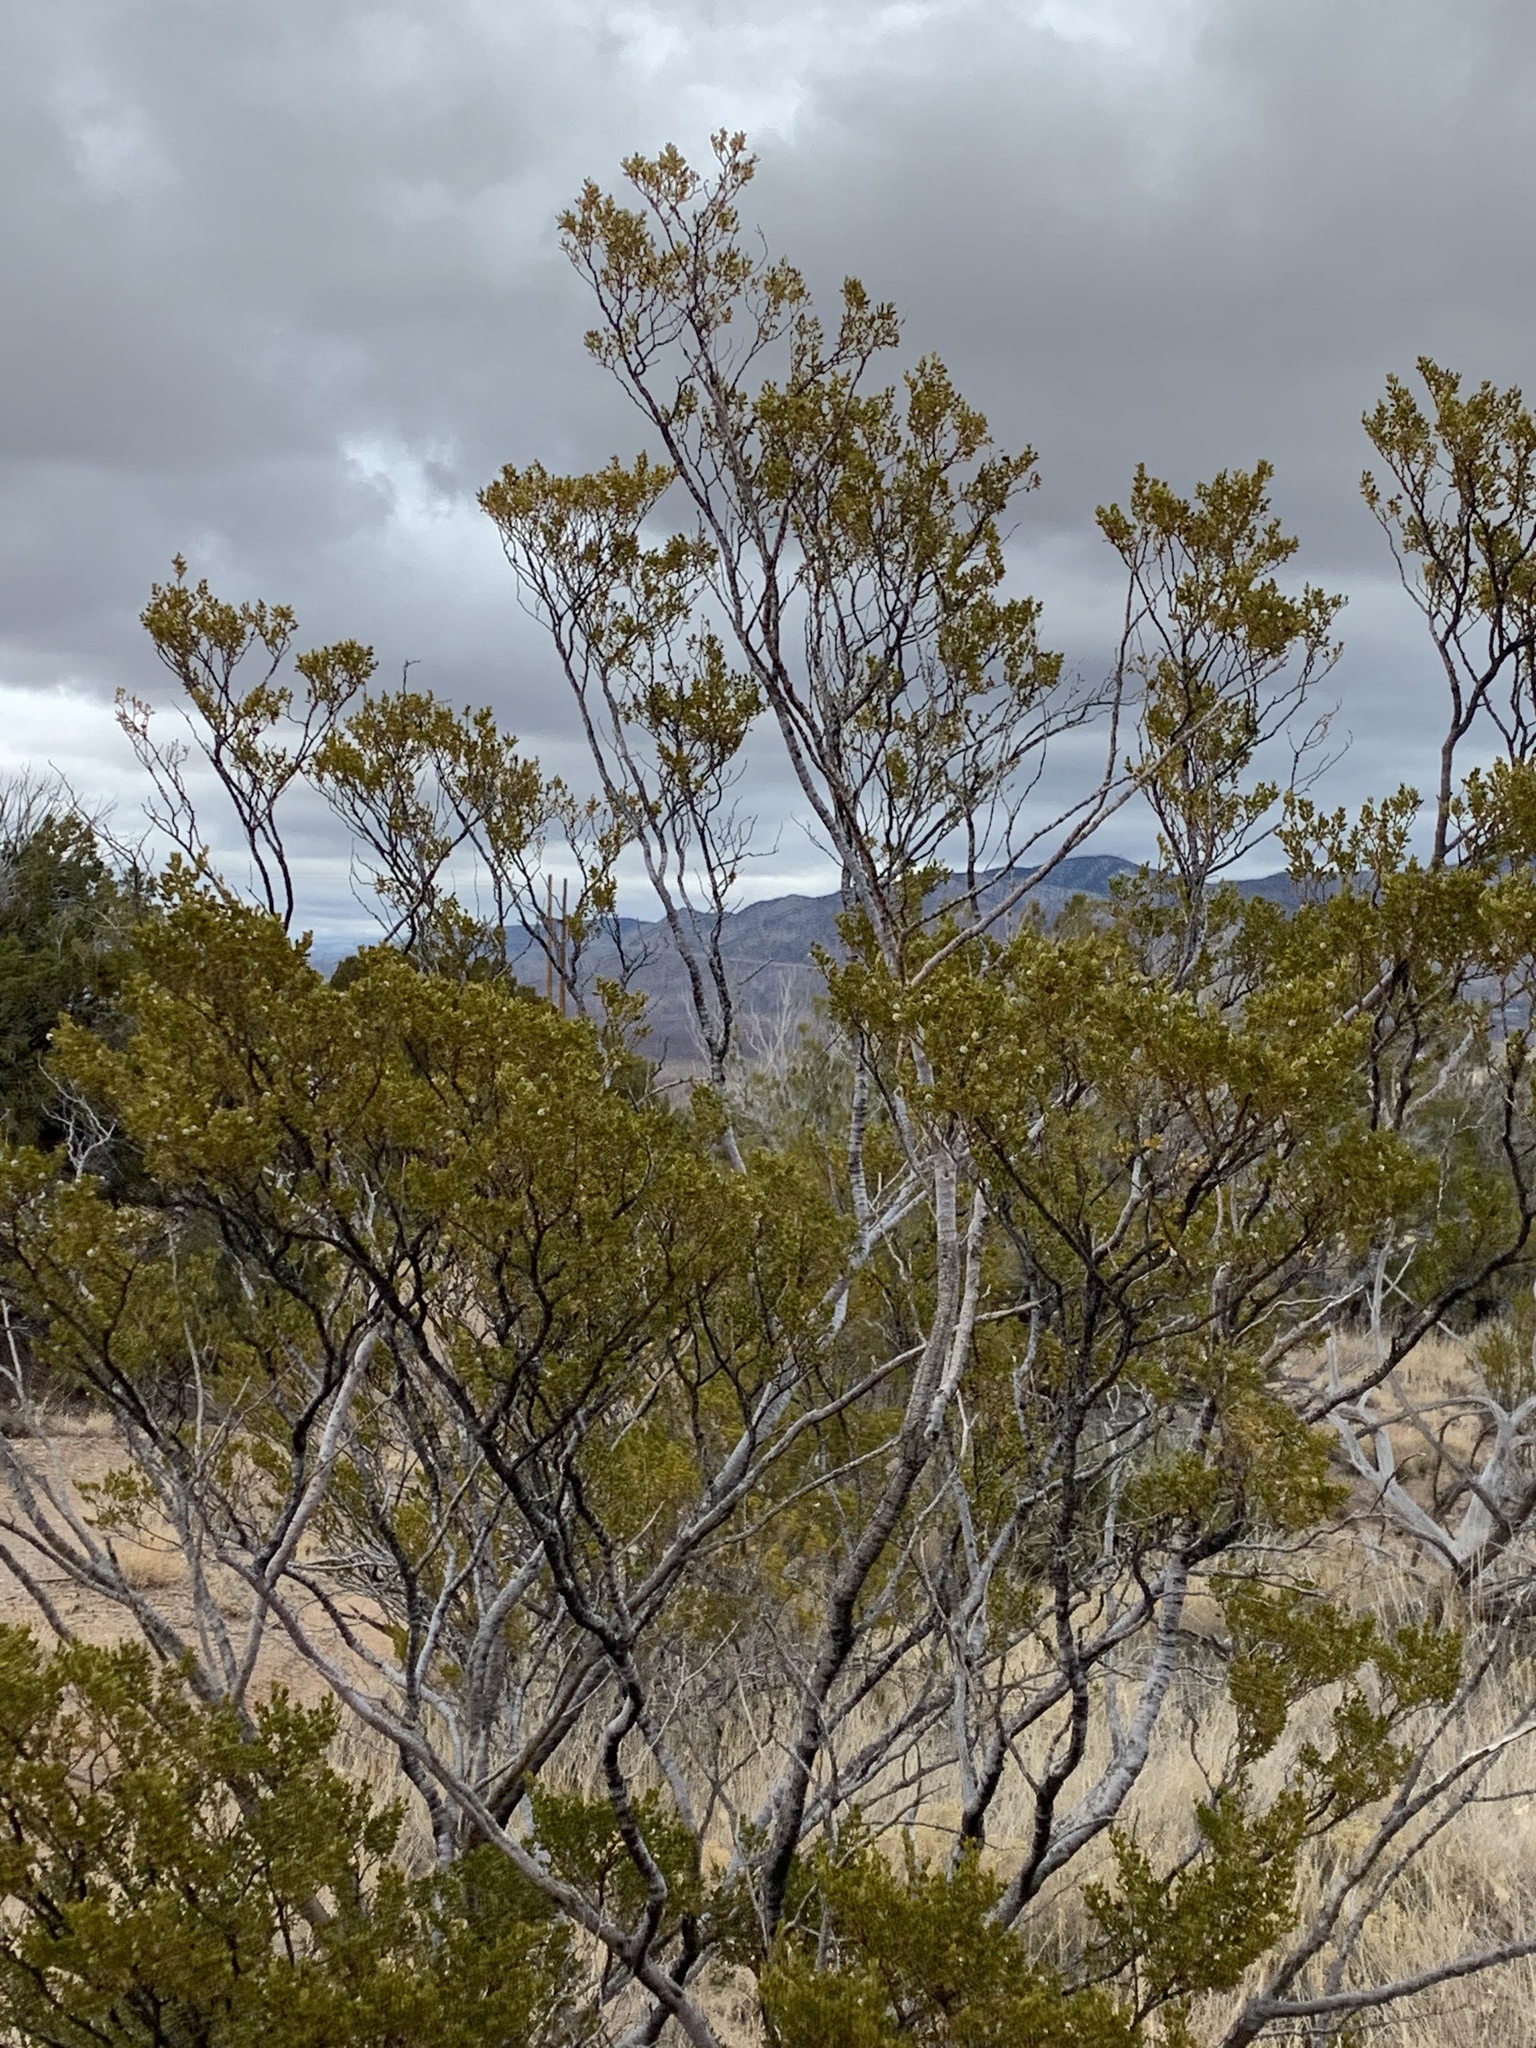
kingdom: Plantae
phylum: Tracheophyta
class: Magnoliopsida
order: Zygophyllales
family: Zygophyllaceae
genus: Larrea
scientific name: Larrea tridentata
